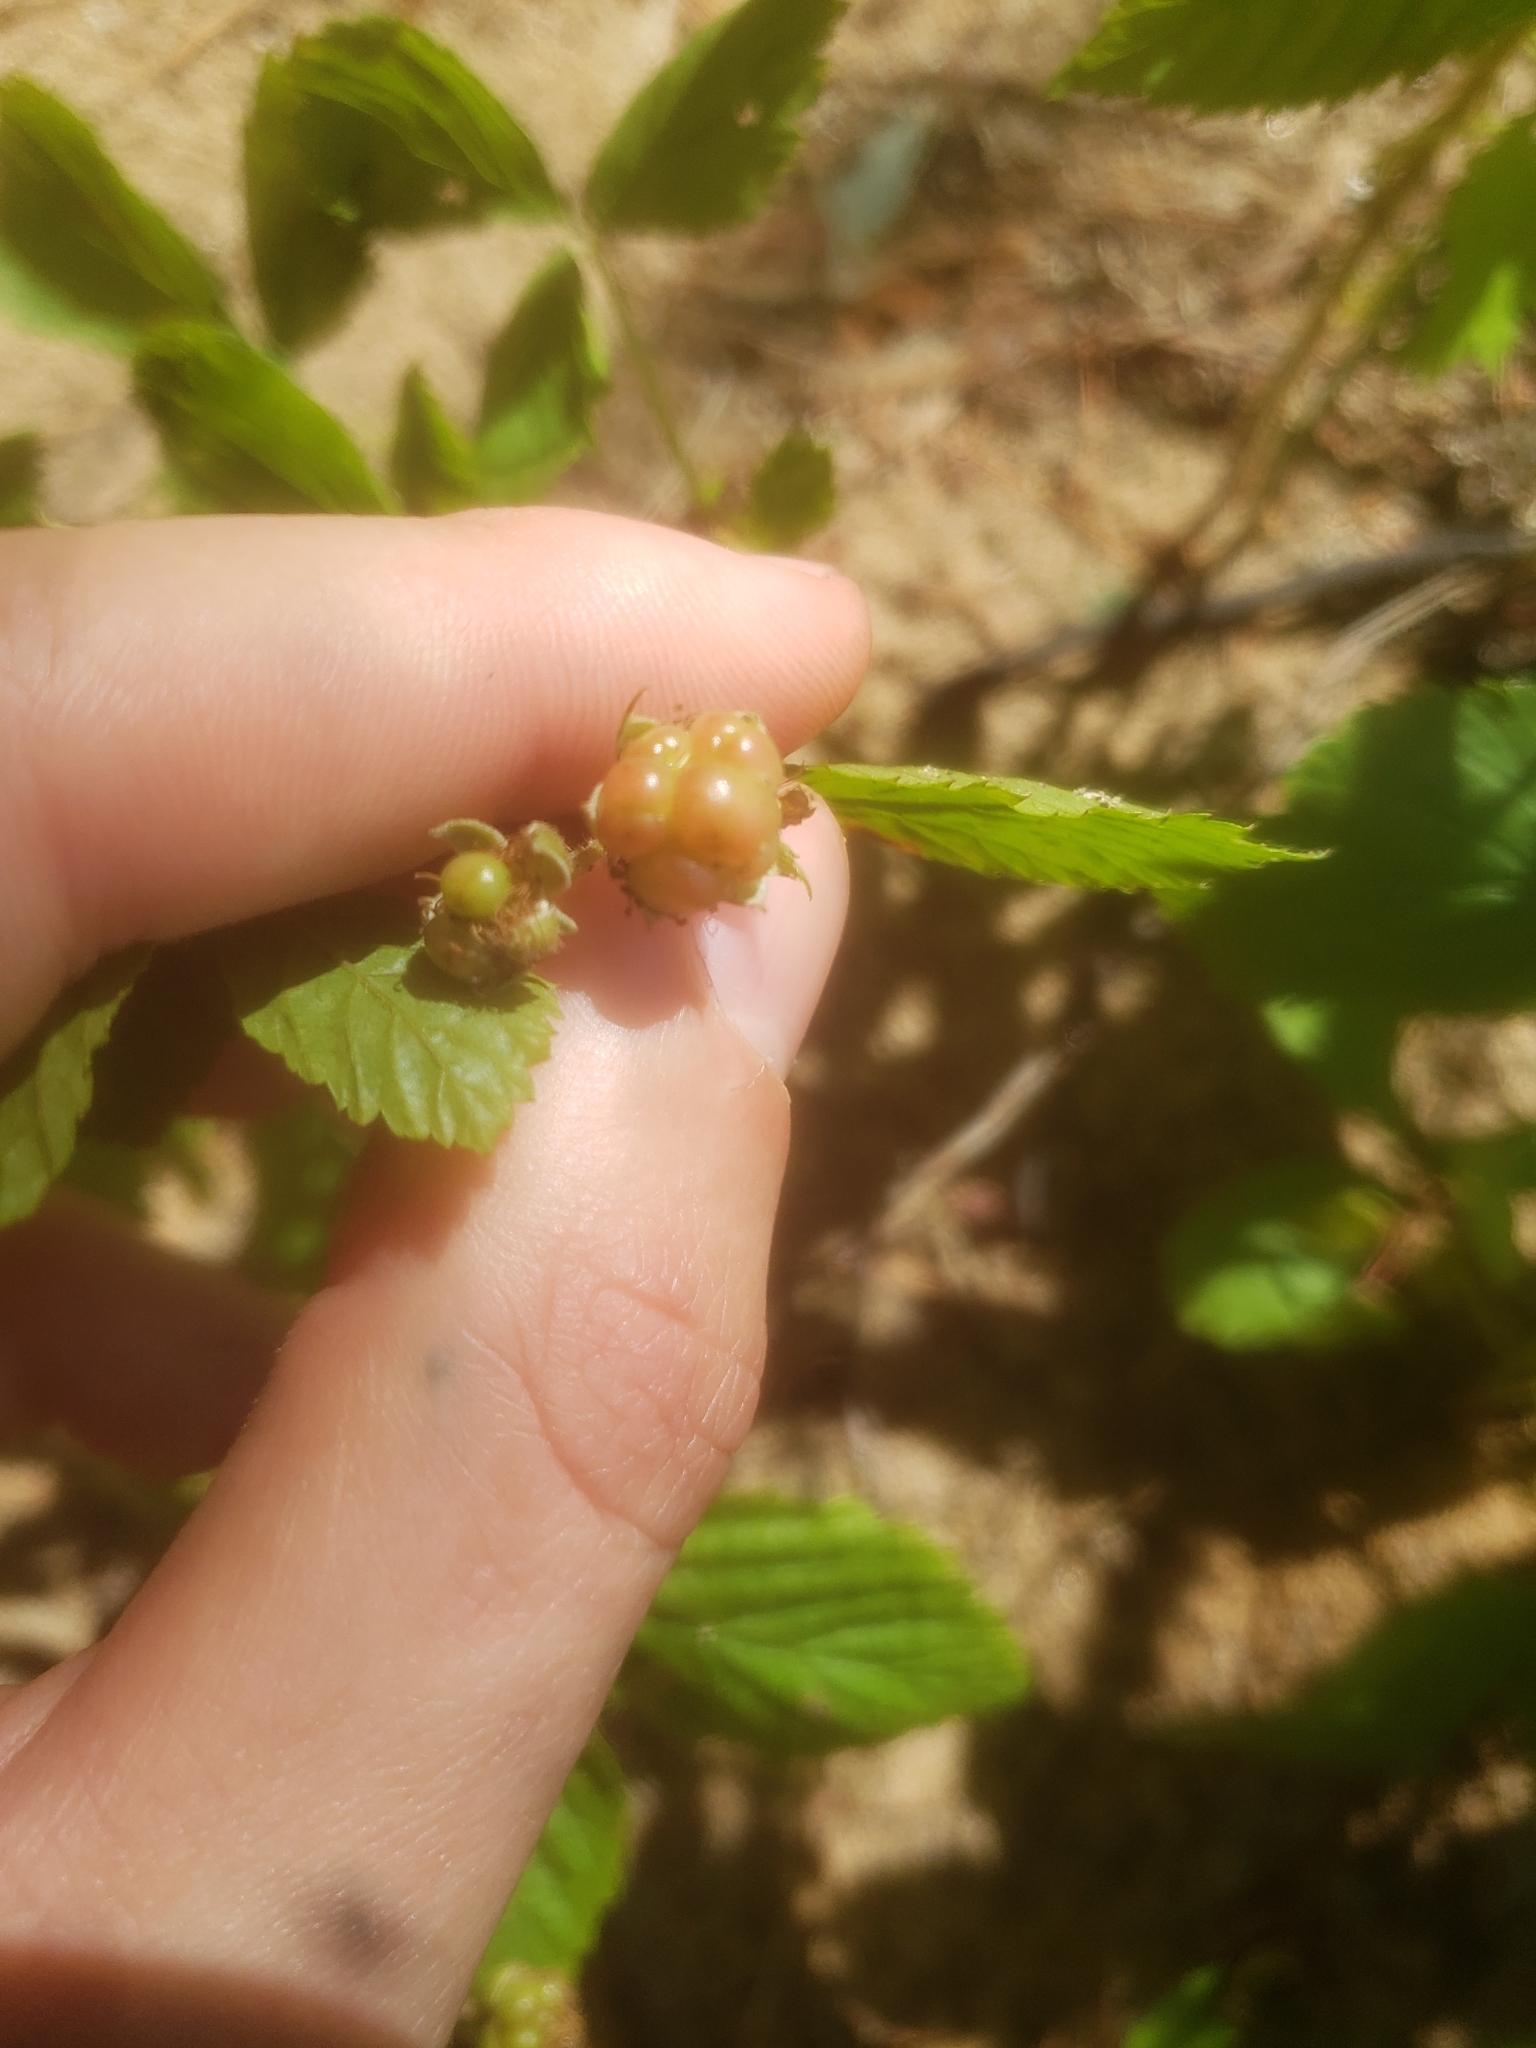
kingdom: Plantae
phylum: Tracheophyta
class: Magnoliopsida
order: Rosales
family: Rosaceae
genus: Rubus
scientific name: Rubus setosus
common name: Bristly blackberry
